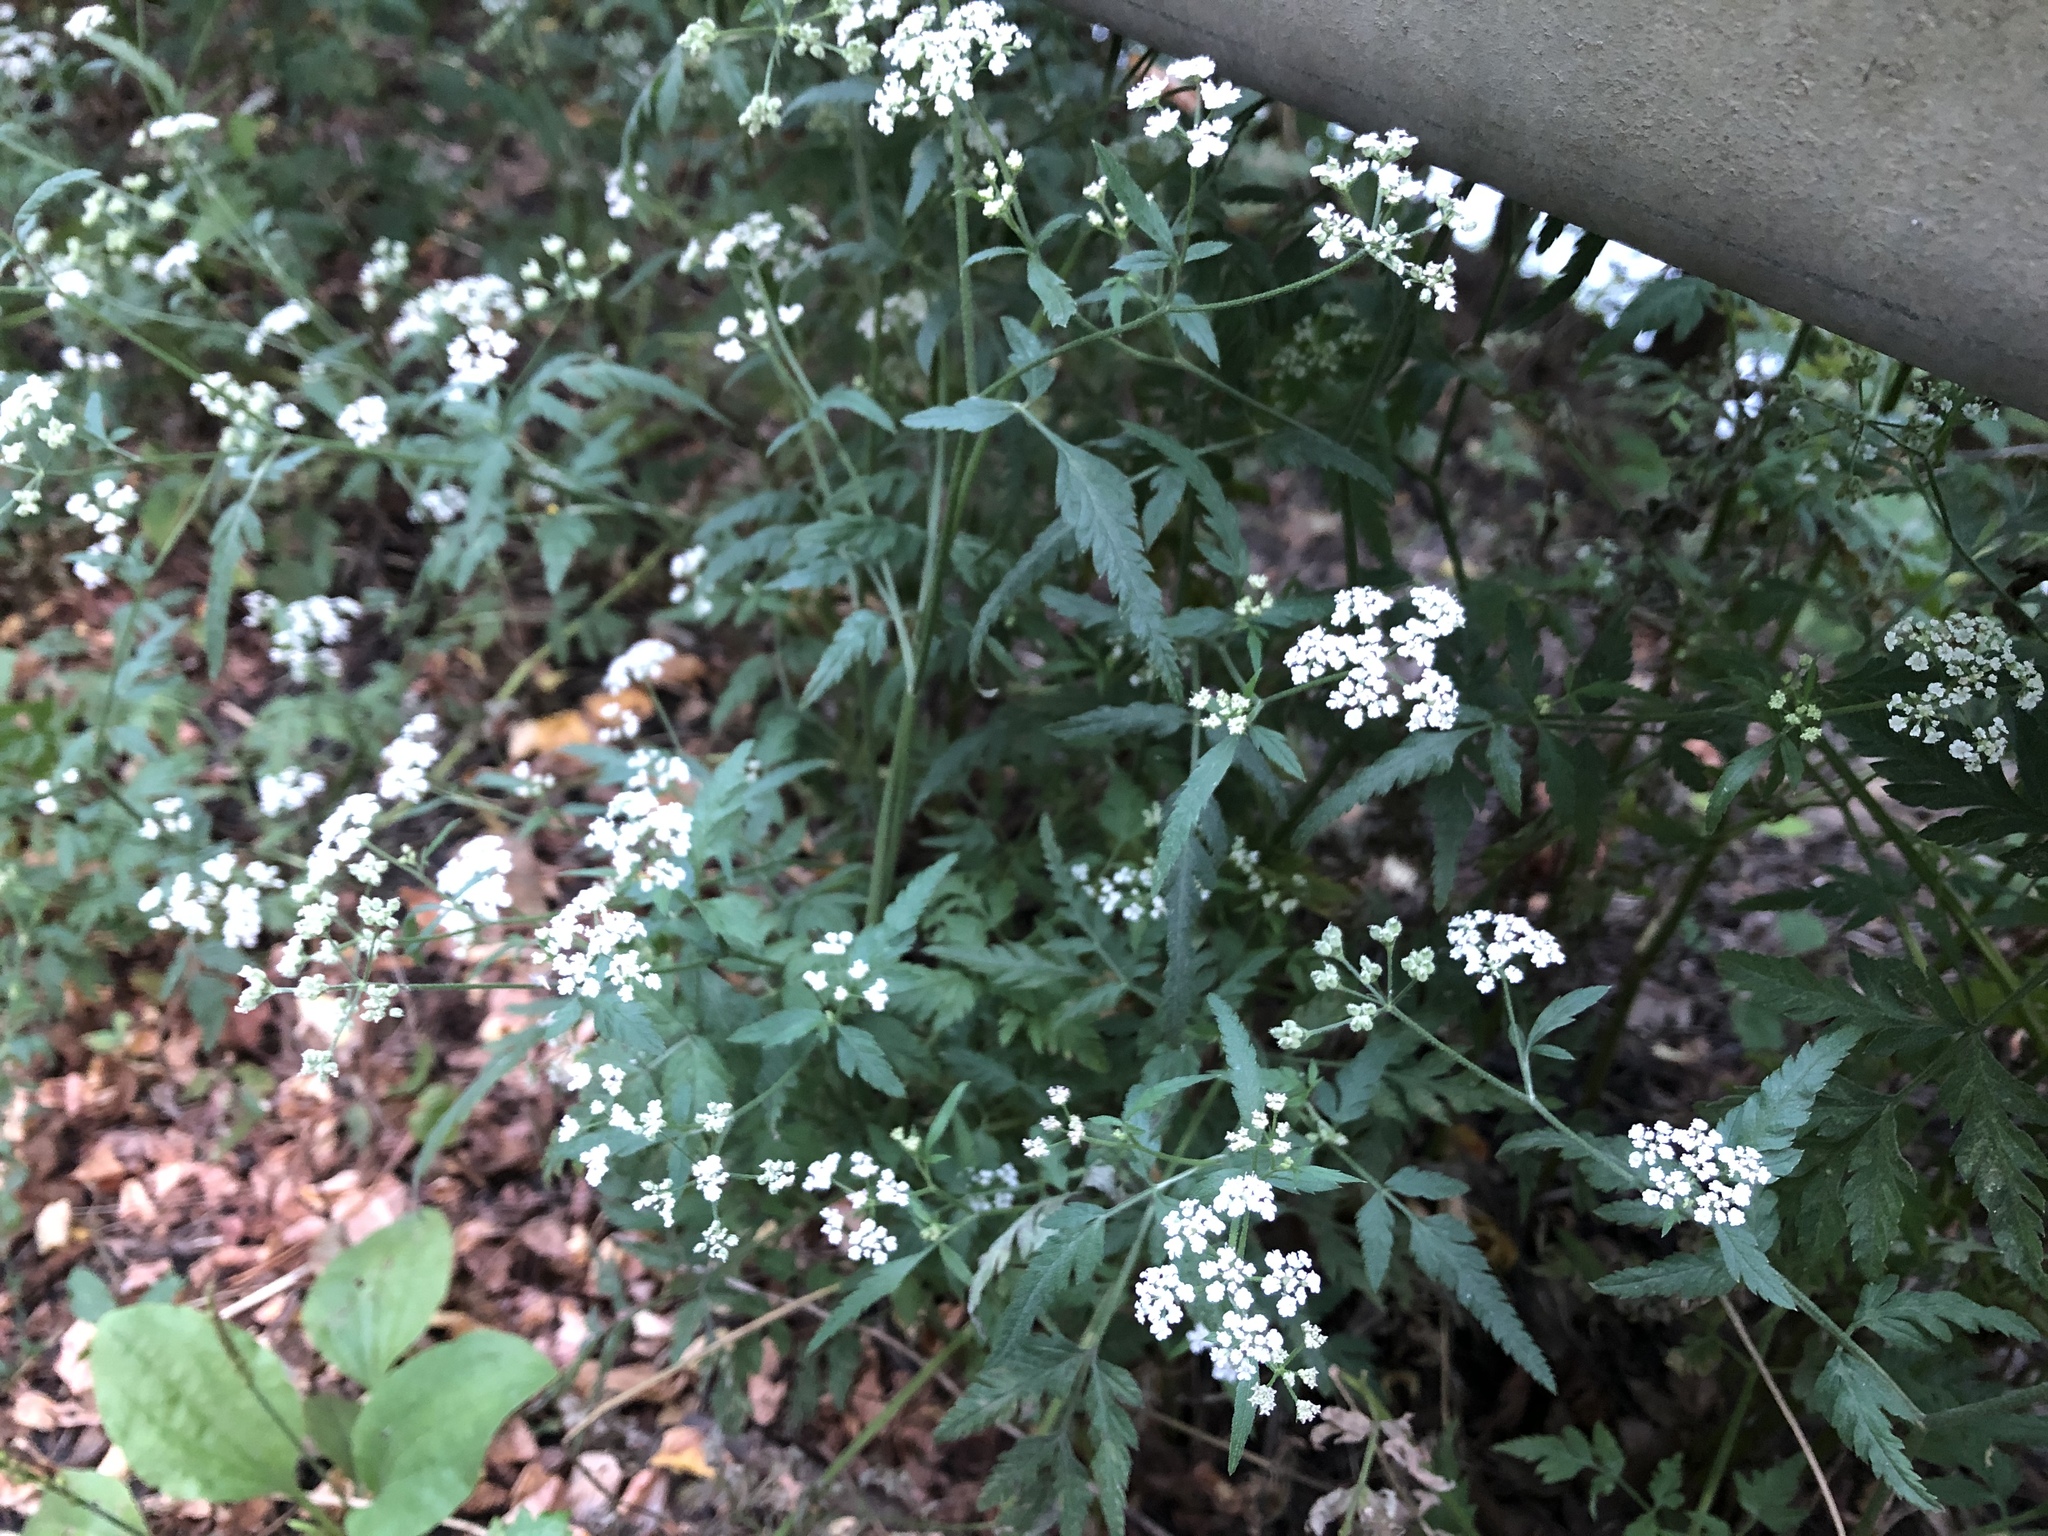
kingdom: Plantae
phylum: Tracheophyta
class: Magnoliopsida
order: Apiales
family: Apiaceae
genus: Torilis
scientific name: Torilis japonica
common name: Upright hedge-parsley
